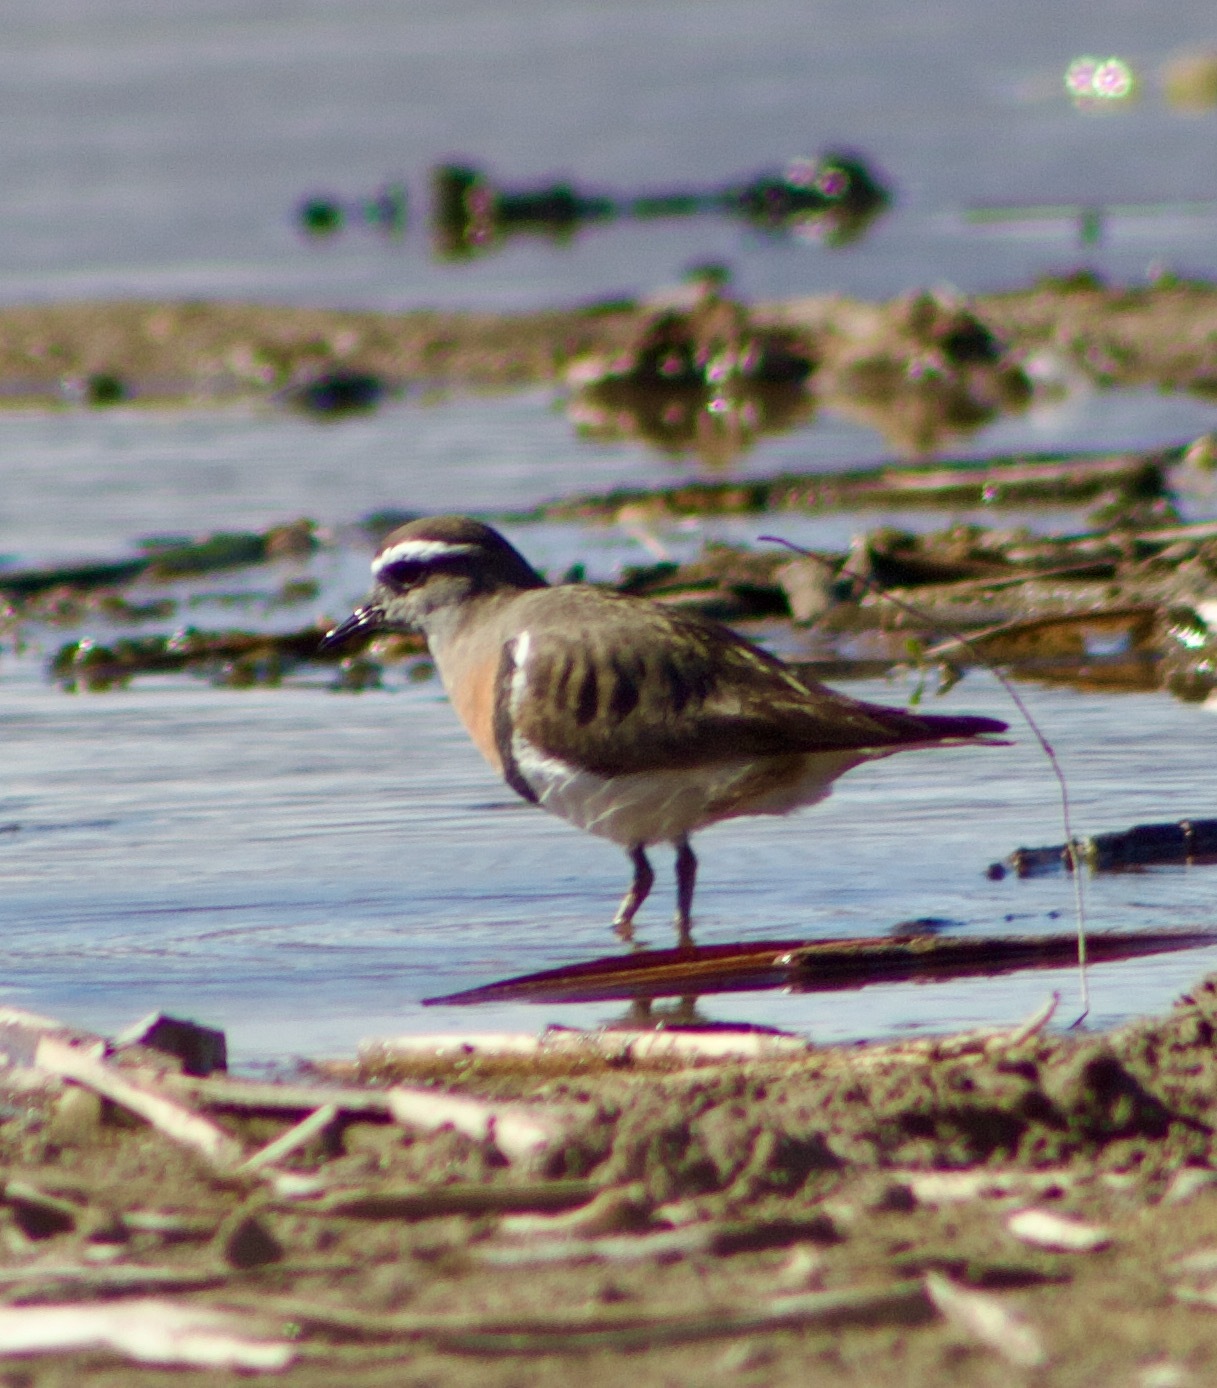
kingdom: Animalia
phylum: Chordata
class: Aves
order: Charadriiformes
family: Charadriidae
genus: Charadrius
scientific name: Charadrius modestus
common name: Rufous-chested plover
